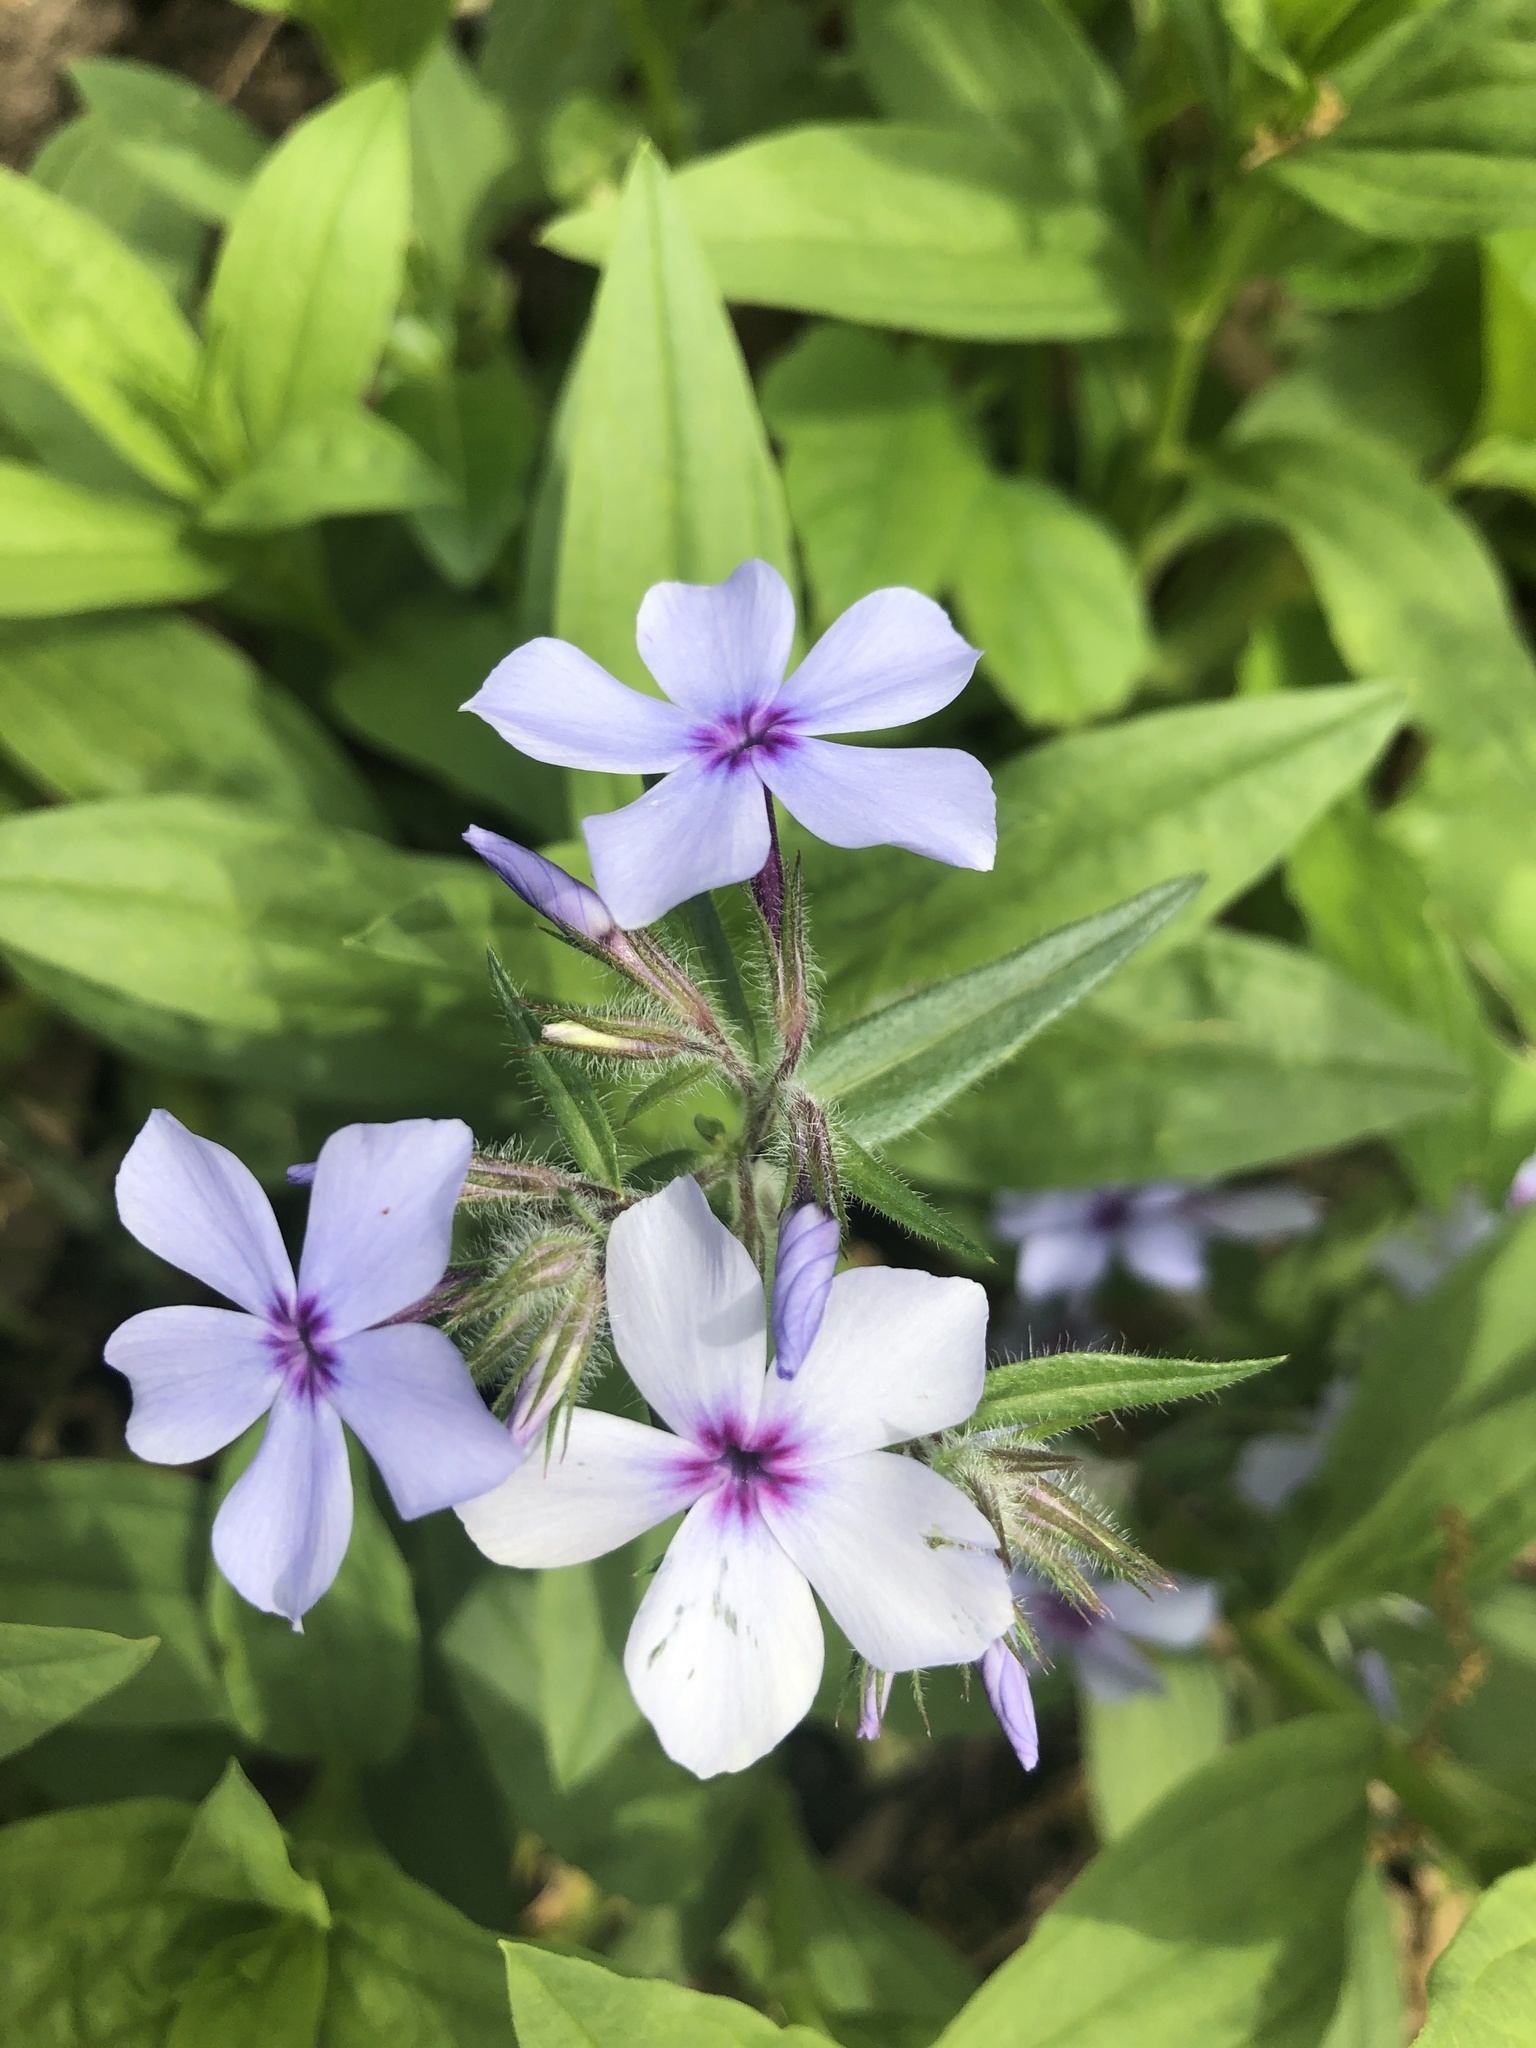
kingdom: Plantae
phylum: Tracheophyta
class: Magnoliopsida
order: Ericales
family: Polemoniaceae
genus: Phlox
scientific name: Phlox divaricata
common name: Blue phlox
